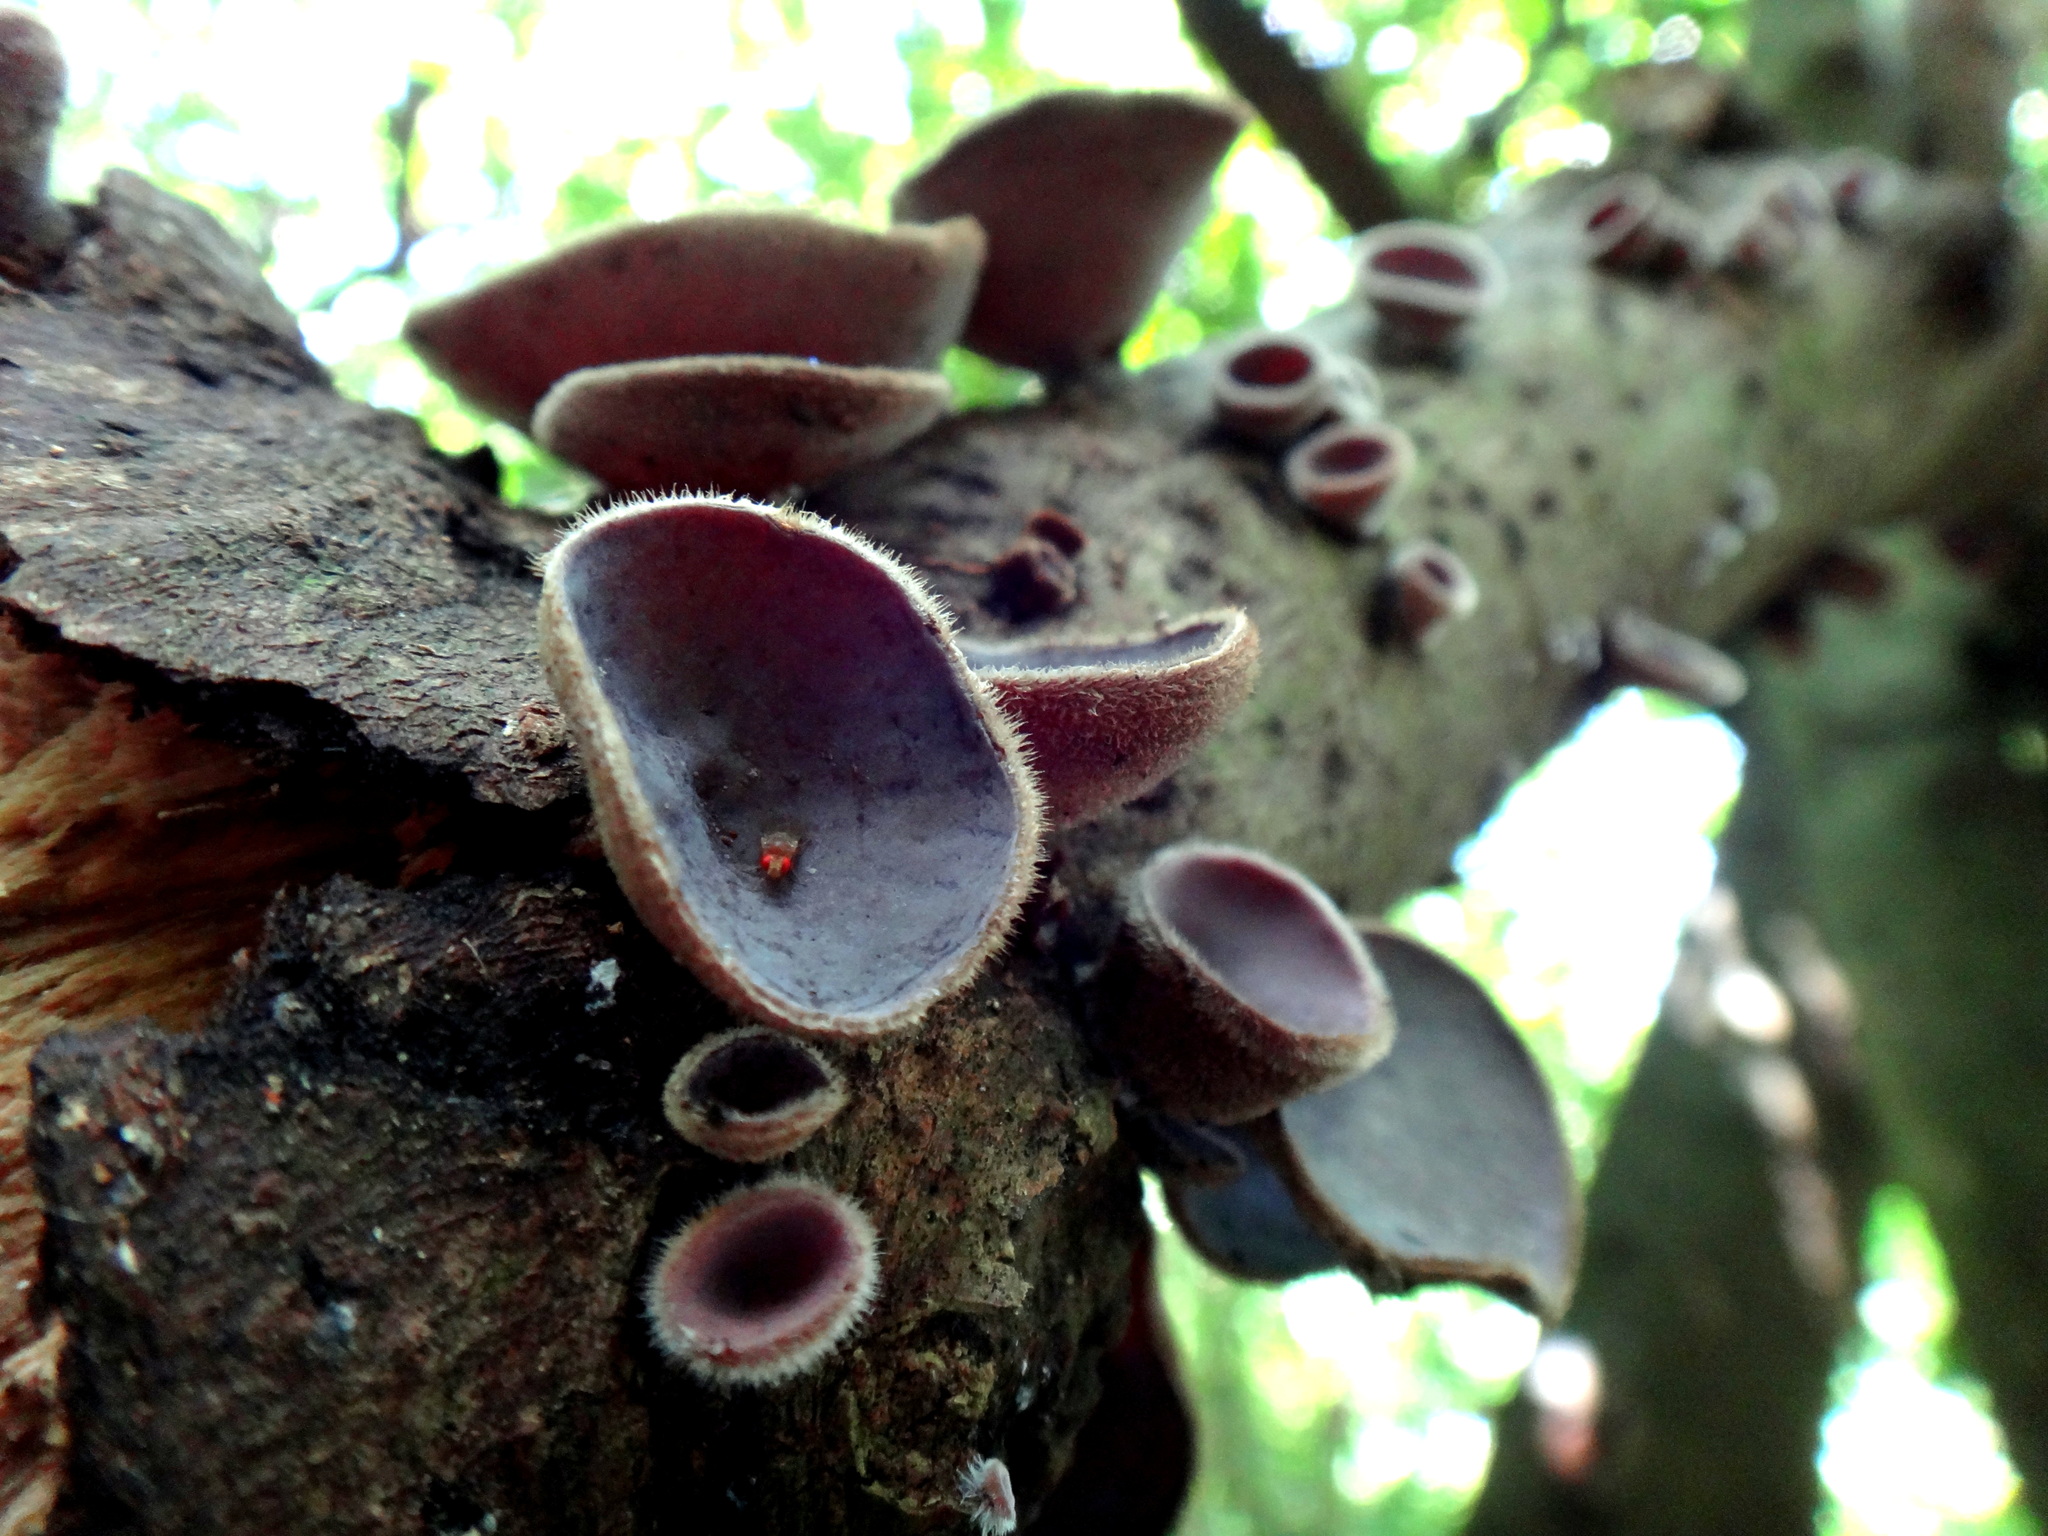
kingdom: Fungi
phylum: Basidiomycota
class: Agaricomycetes
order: Auriculariales
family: Auriculariaceae
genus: Auricularia
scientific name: Auricularia nigricans
